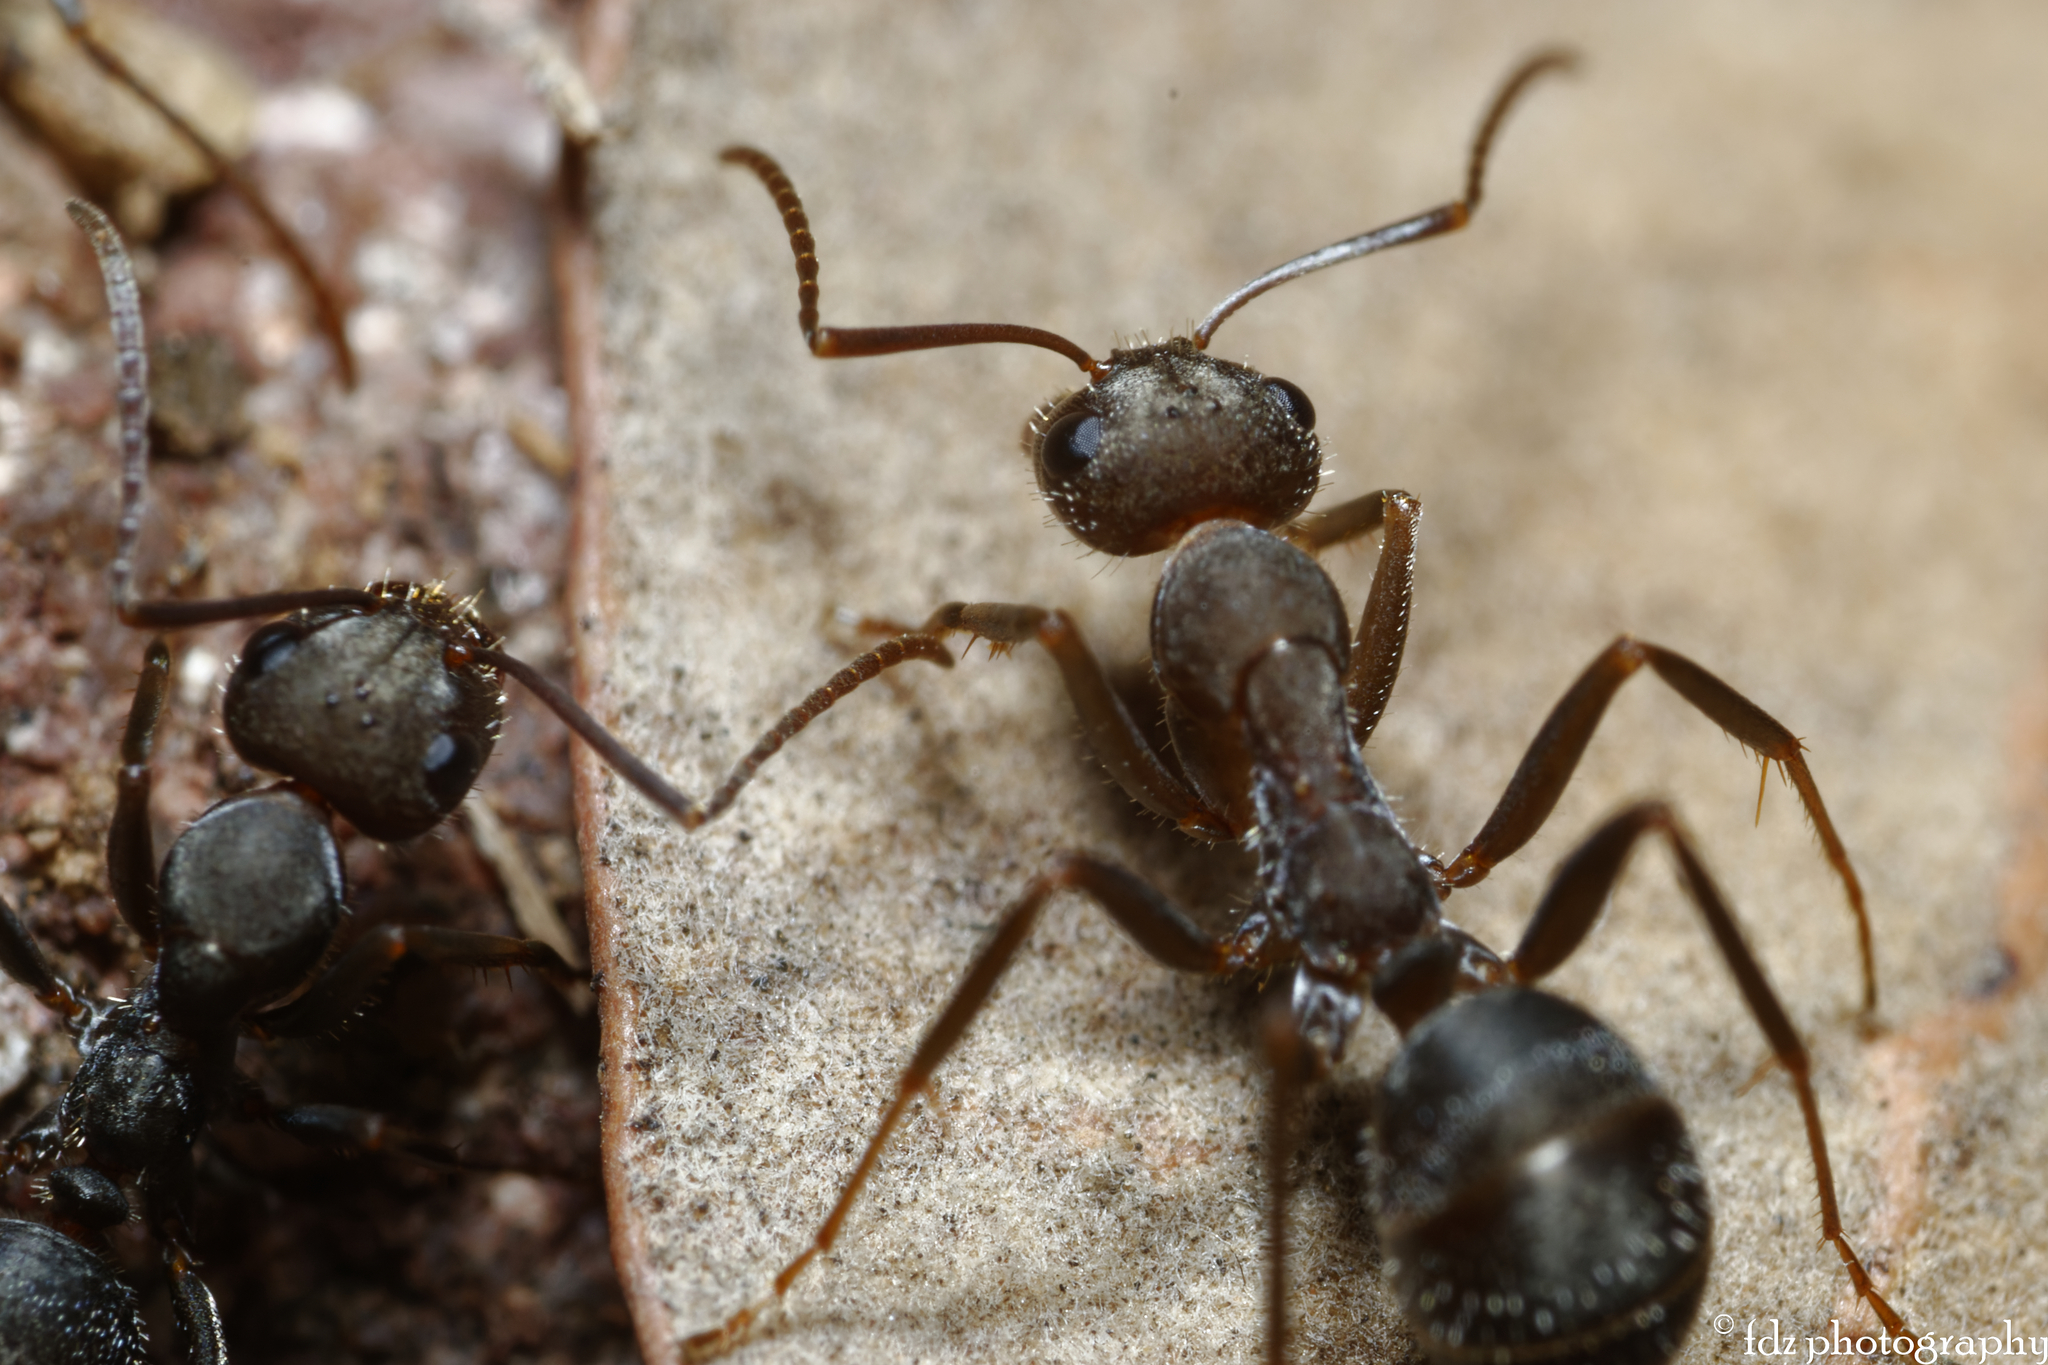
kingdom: Animalia
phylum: Arthropoda
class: Insecta
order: Hymenoptera
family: Formicidae
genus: Formica
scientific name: Formica subrufa
